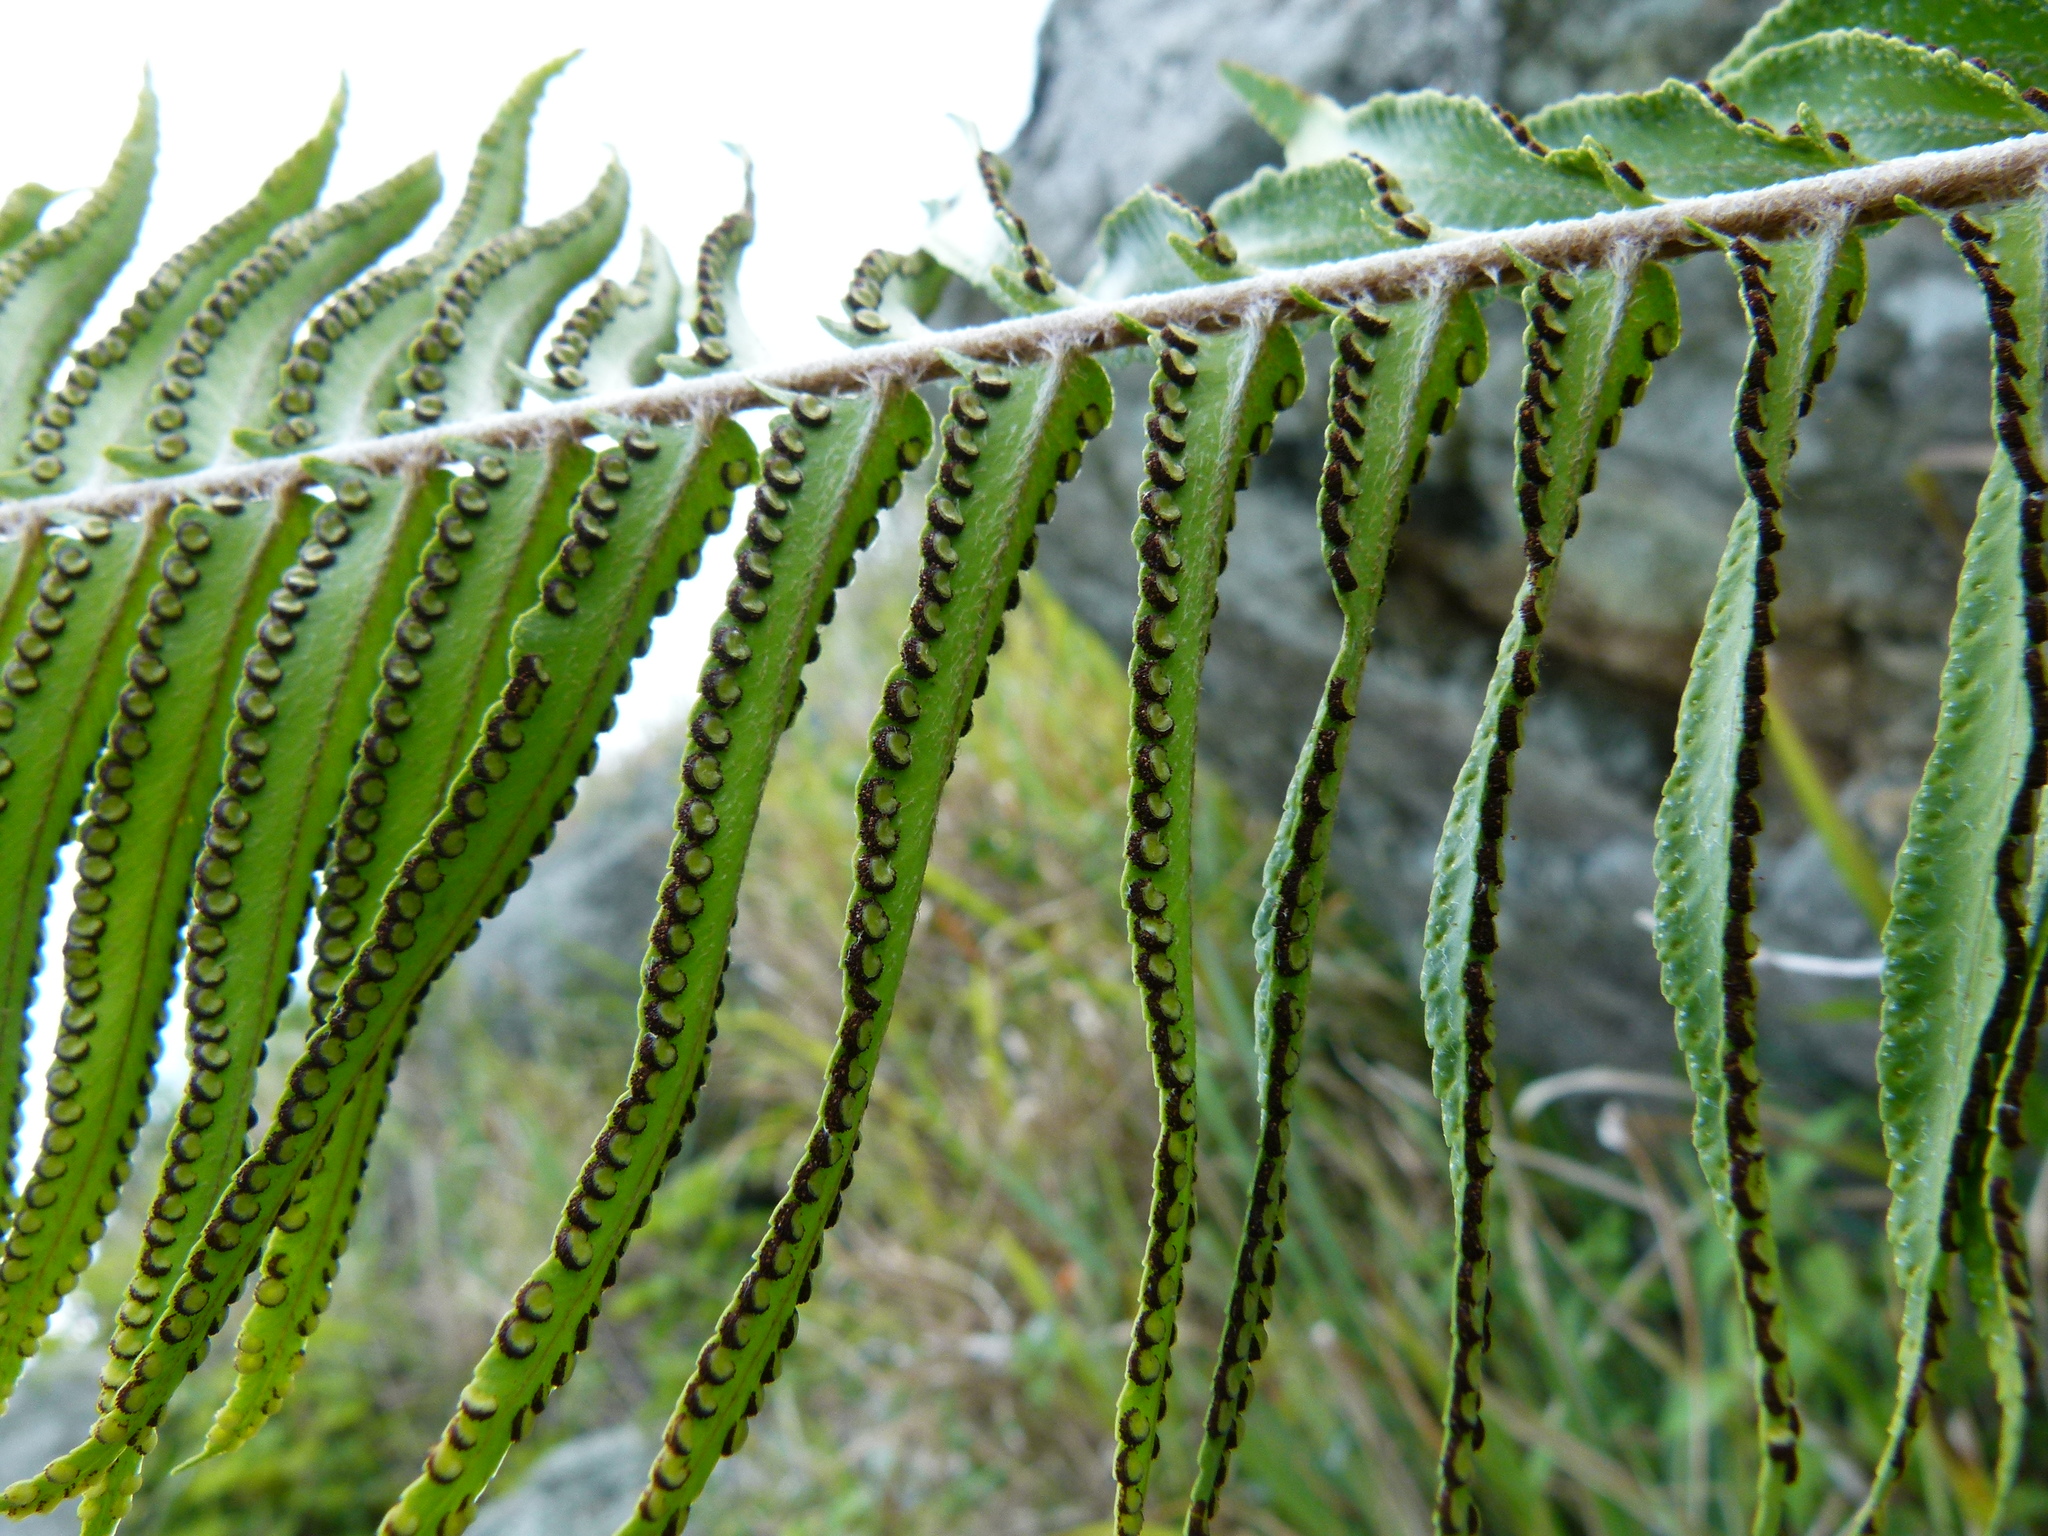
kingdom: Plantae
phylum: Tracheophyta
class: Polypodiopsida
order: Polypodiales
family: Nephrolepidaceae
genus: Nephrolepis
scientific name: Nephrolepis brownii
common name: Asian swordfern
